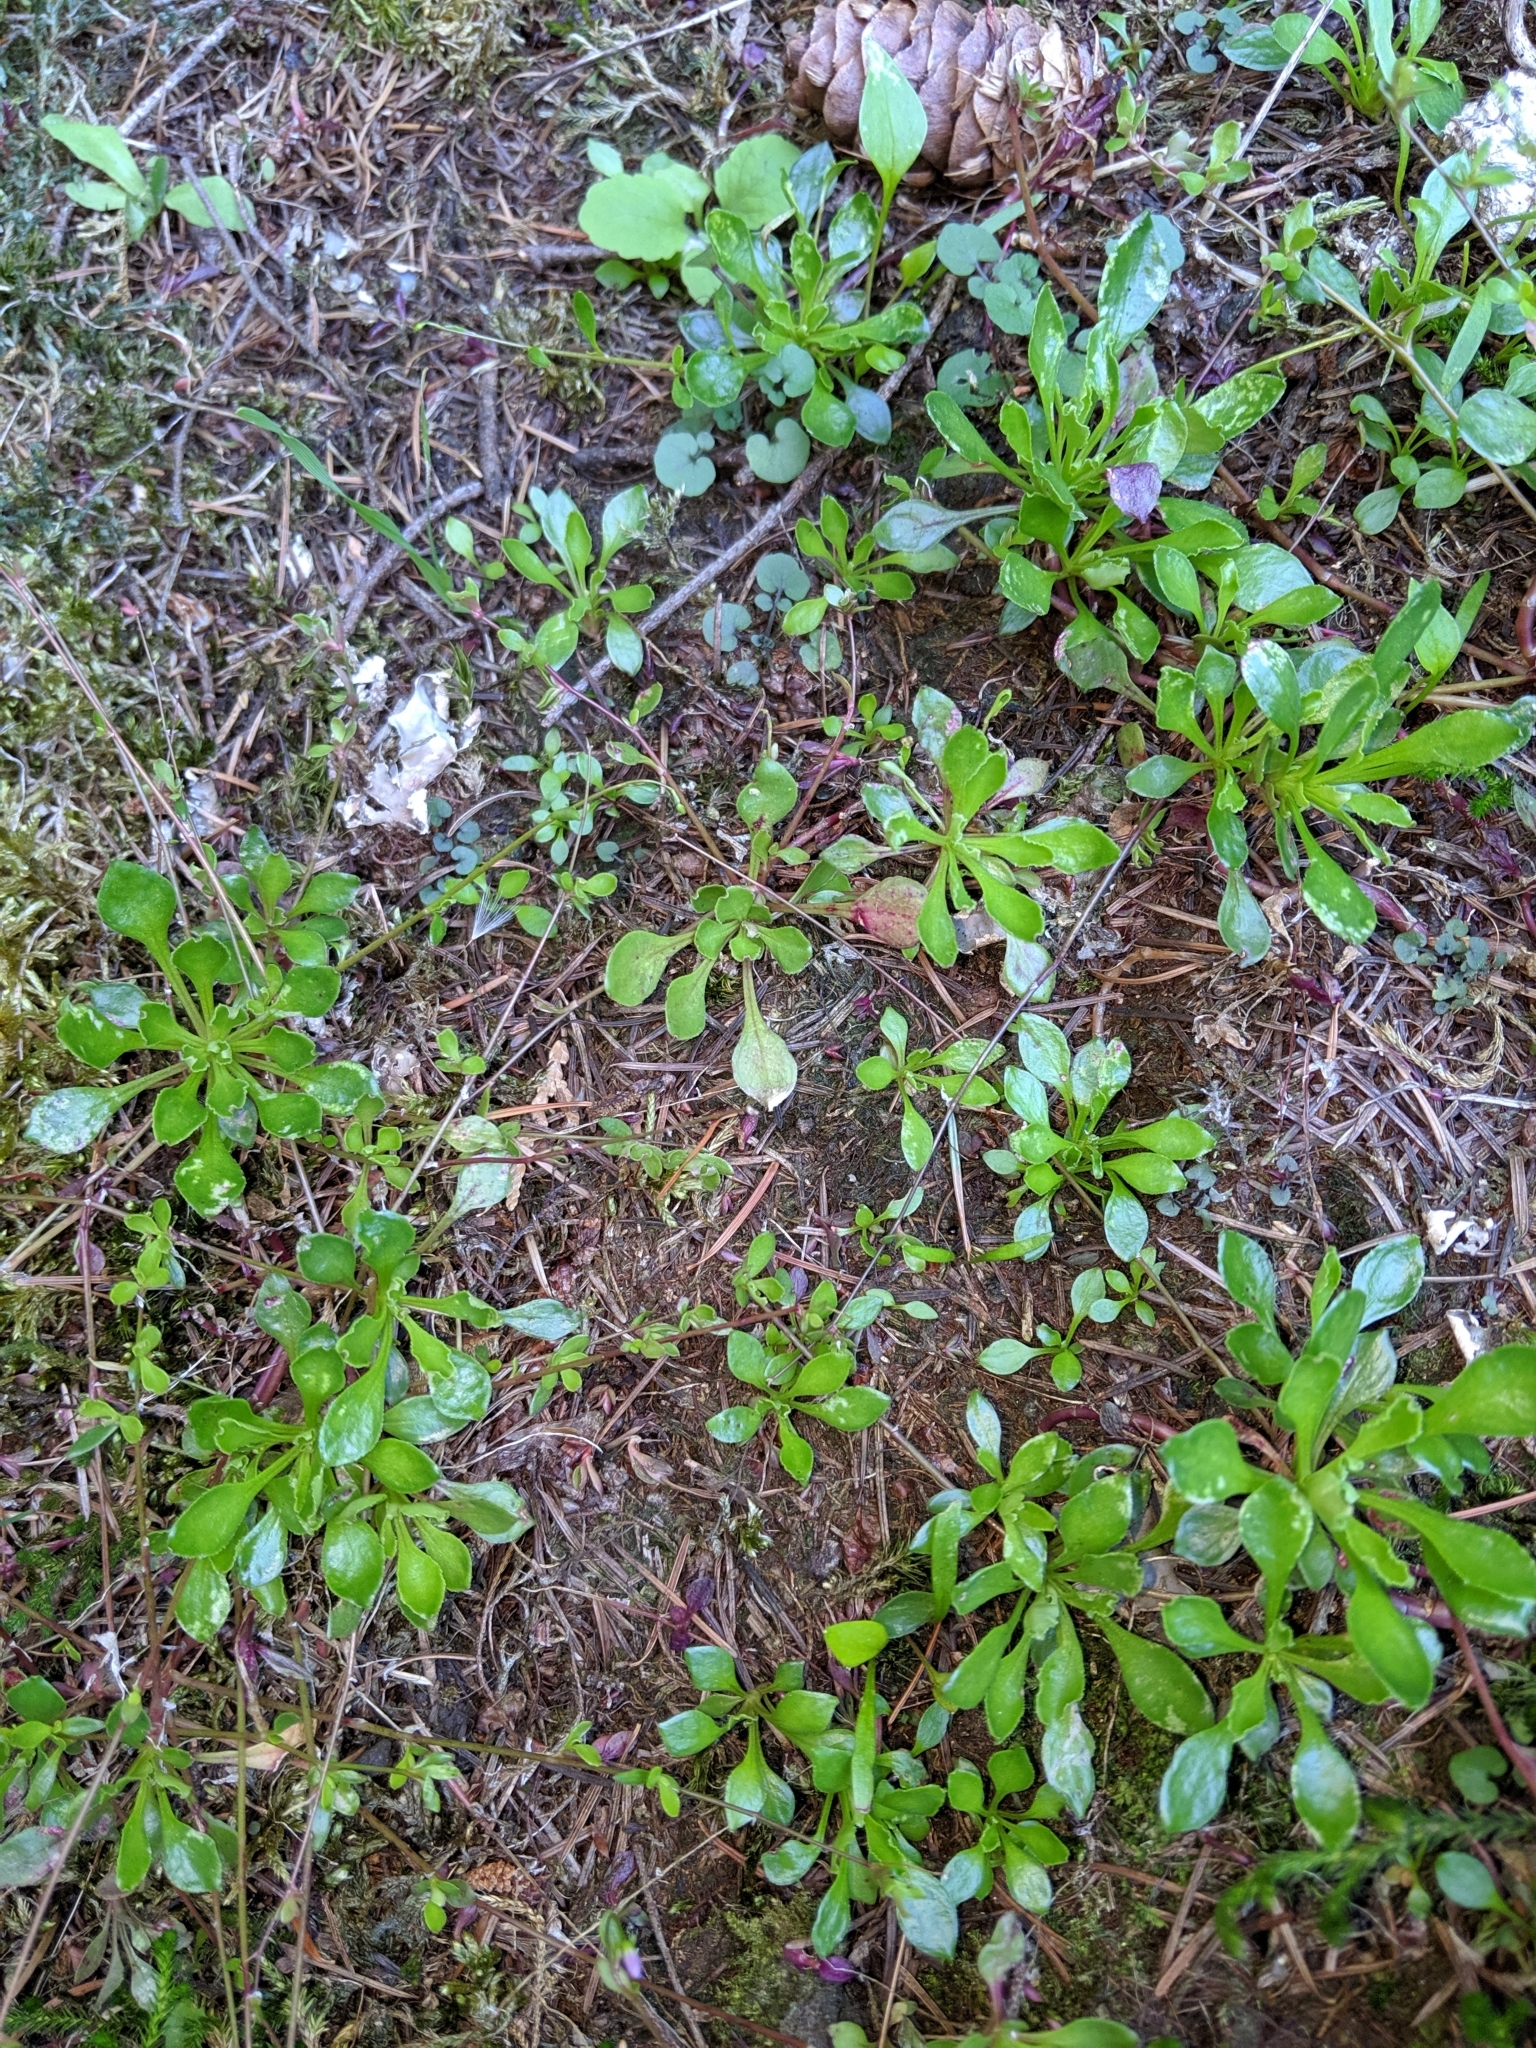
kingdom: Plantae
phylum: Tracheophyta
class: Magnoliopsida
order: Caryophyllales
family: Montiaceae
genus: Montia
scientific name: Montia parvifolia
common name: Small-leaved blinks
